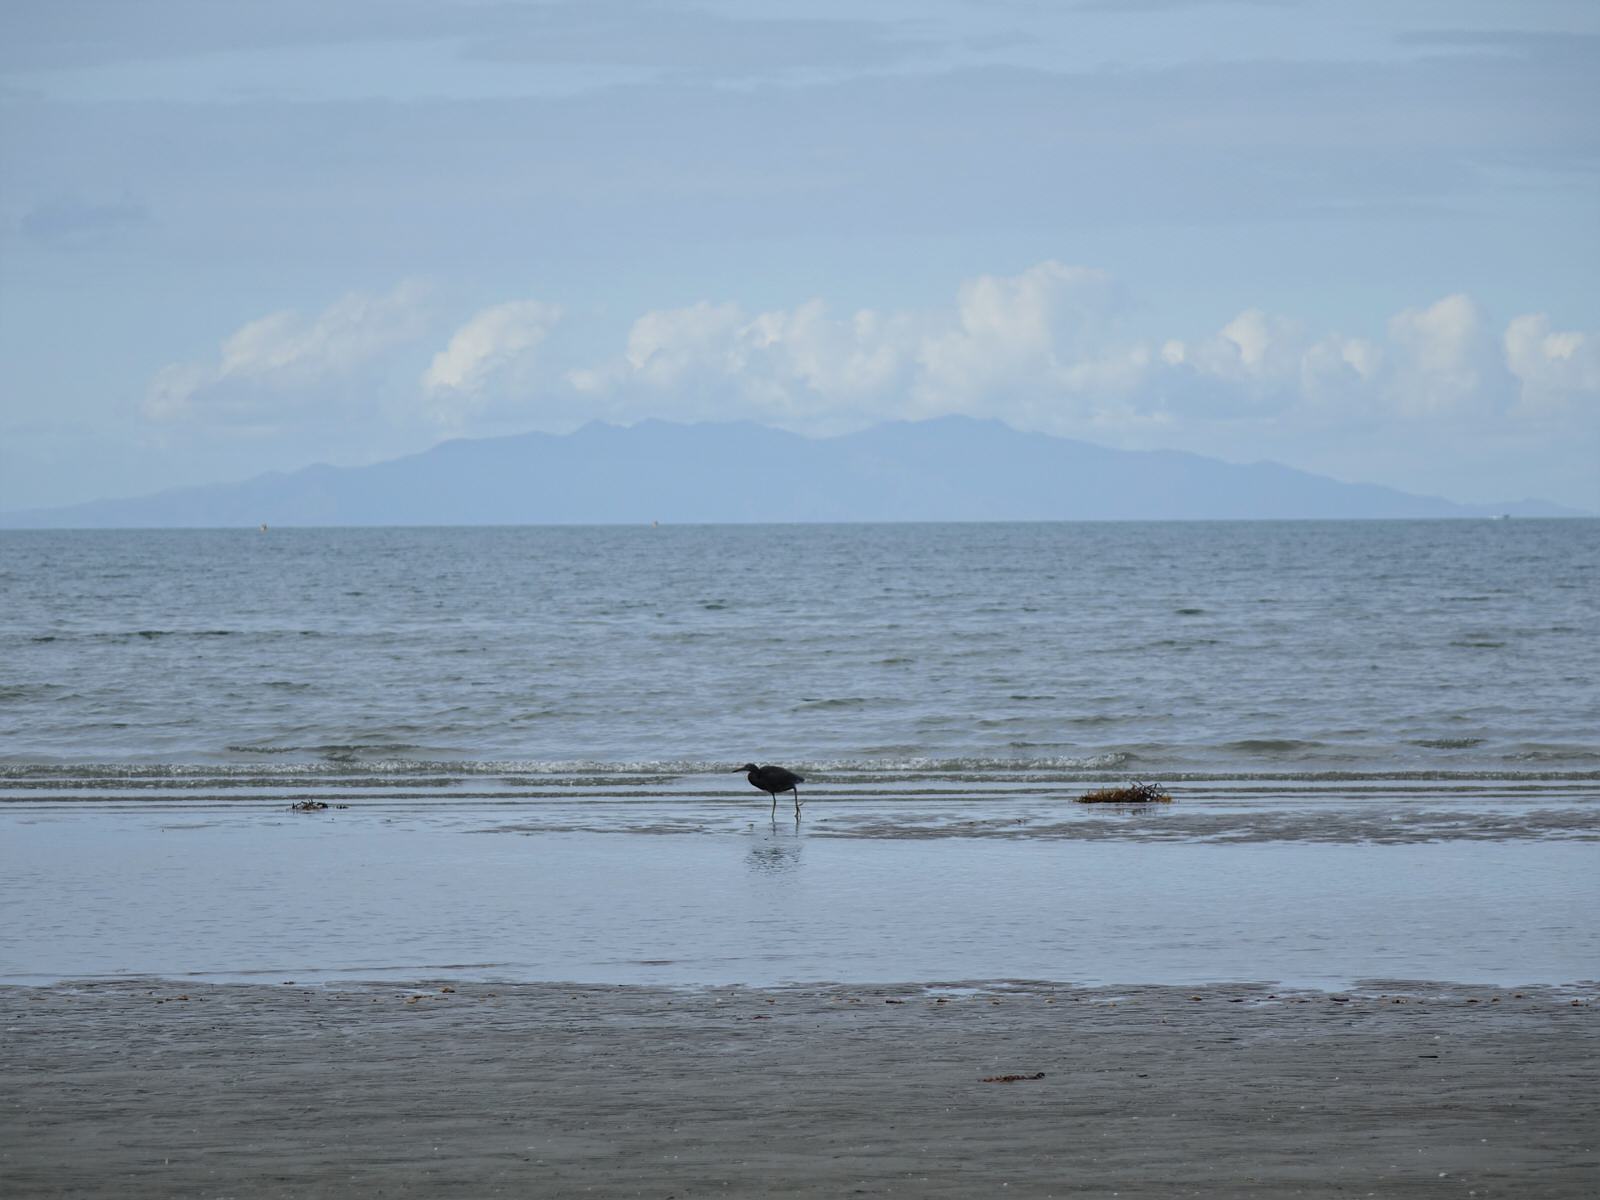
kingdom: Animalia
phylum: Chordata
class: Aves
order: Pelecaniformes
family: Ardeidae
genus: Egretta
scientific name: Egretta sacra
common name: Pacific reef heron
